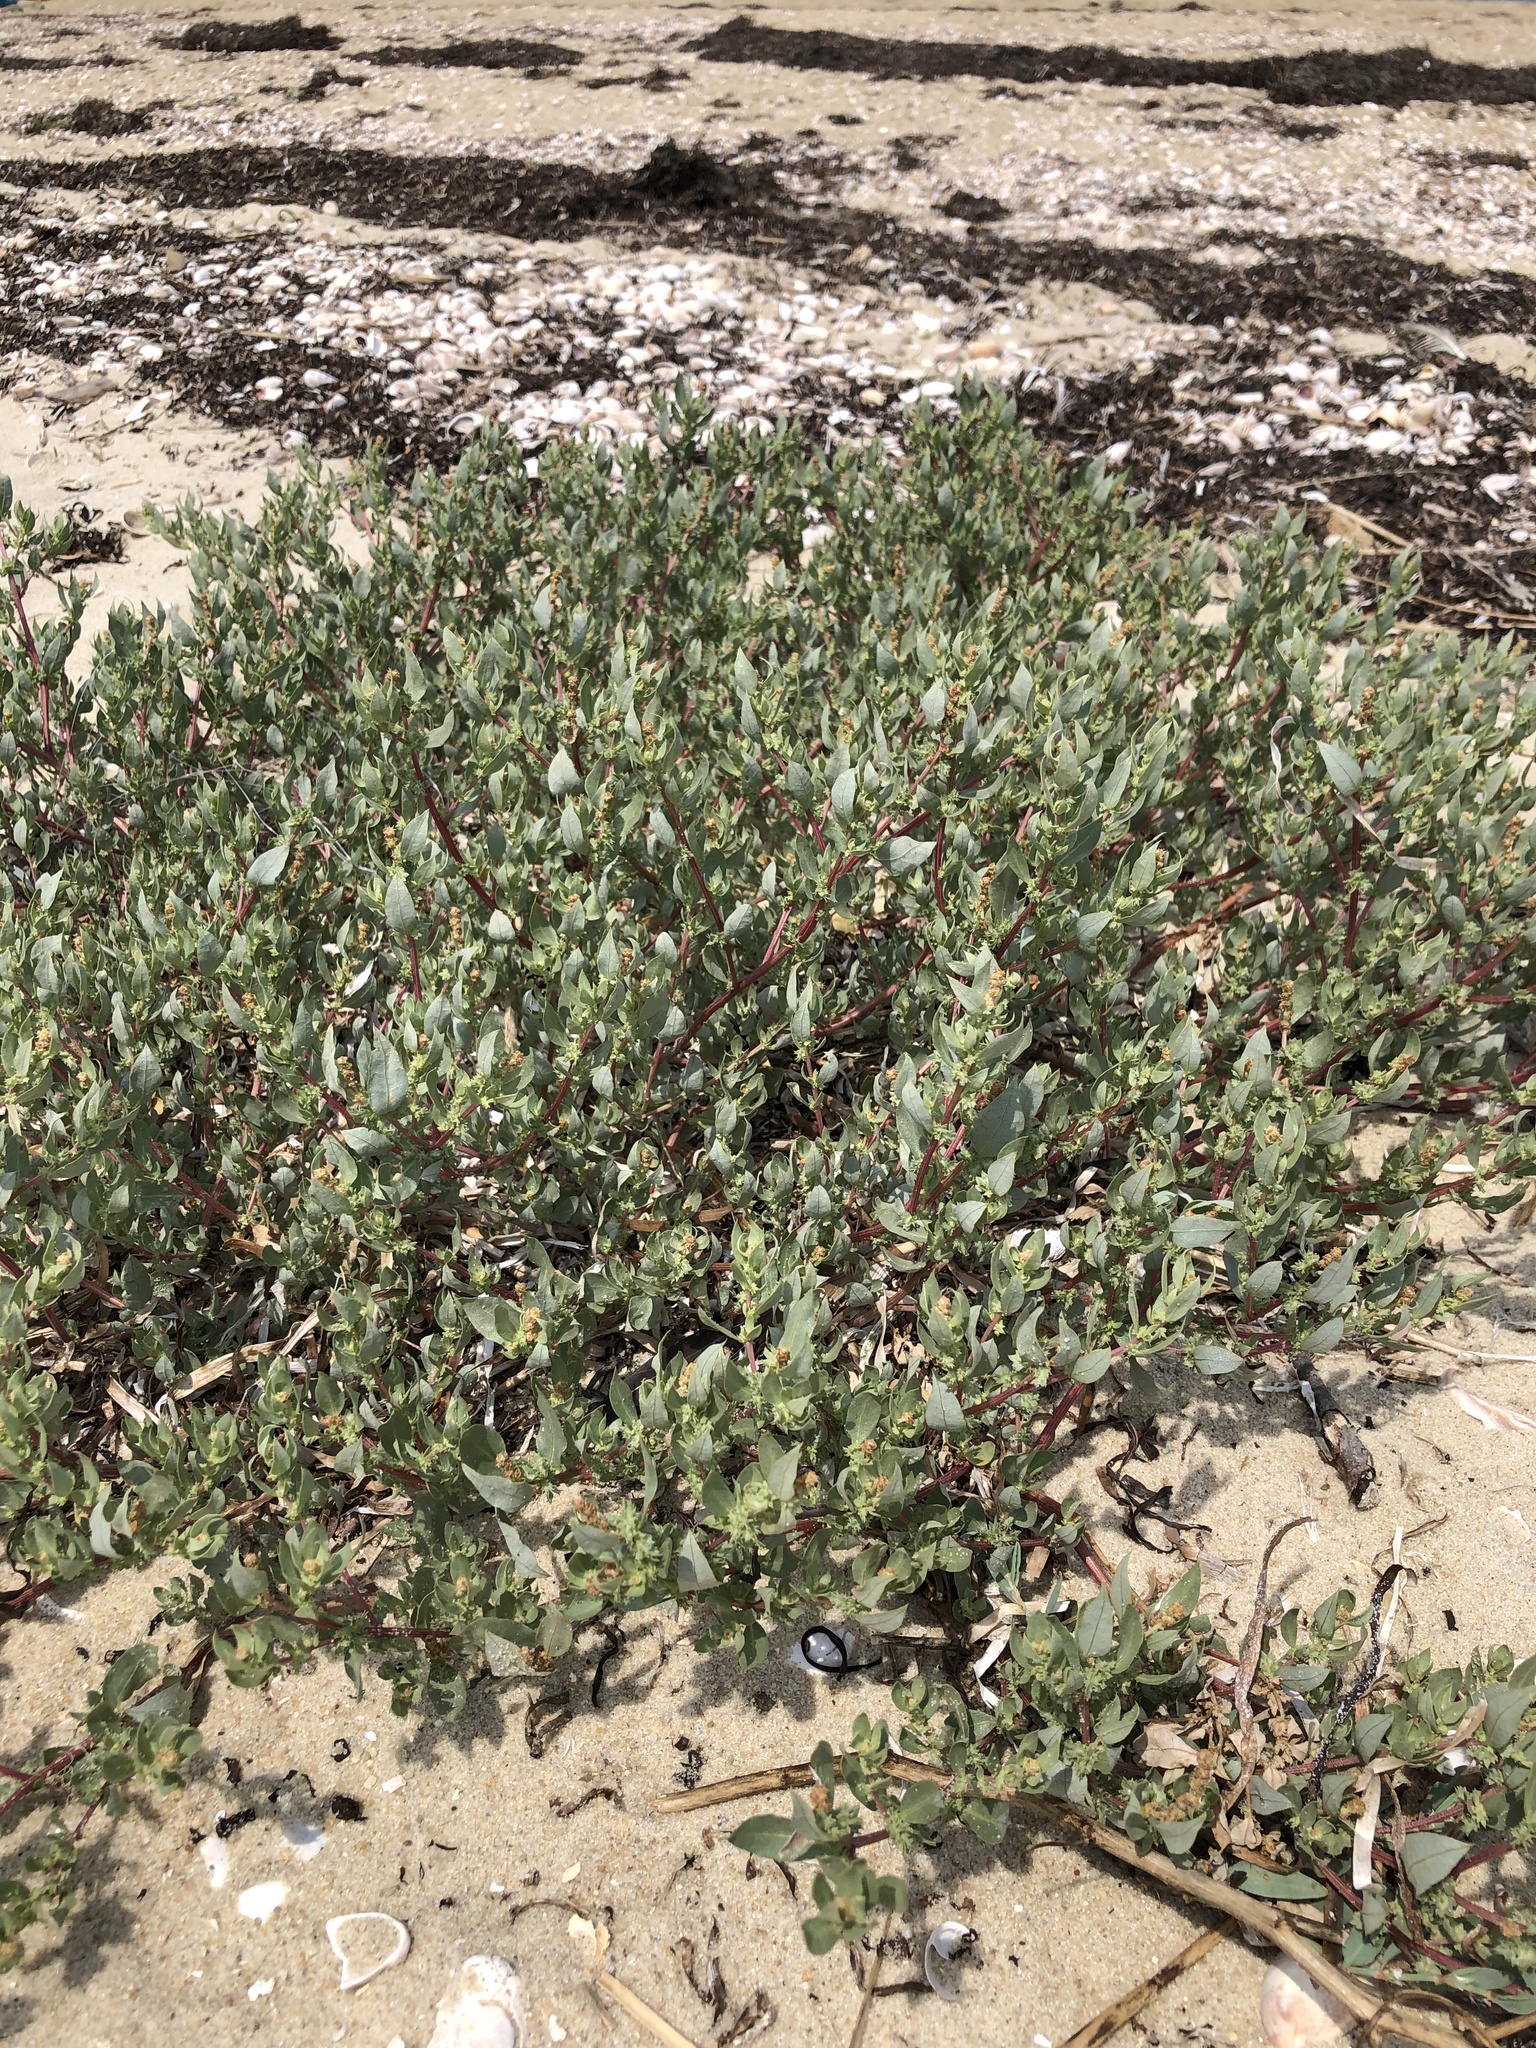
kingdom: Plantae
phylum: Tracheophyta
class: Magnoliopsida
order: Caryophyllales
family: Amaranthaceae
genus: Atriplex
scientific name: Atriplex cristata
